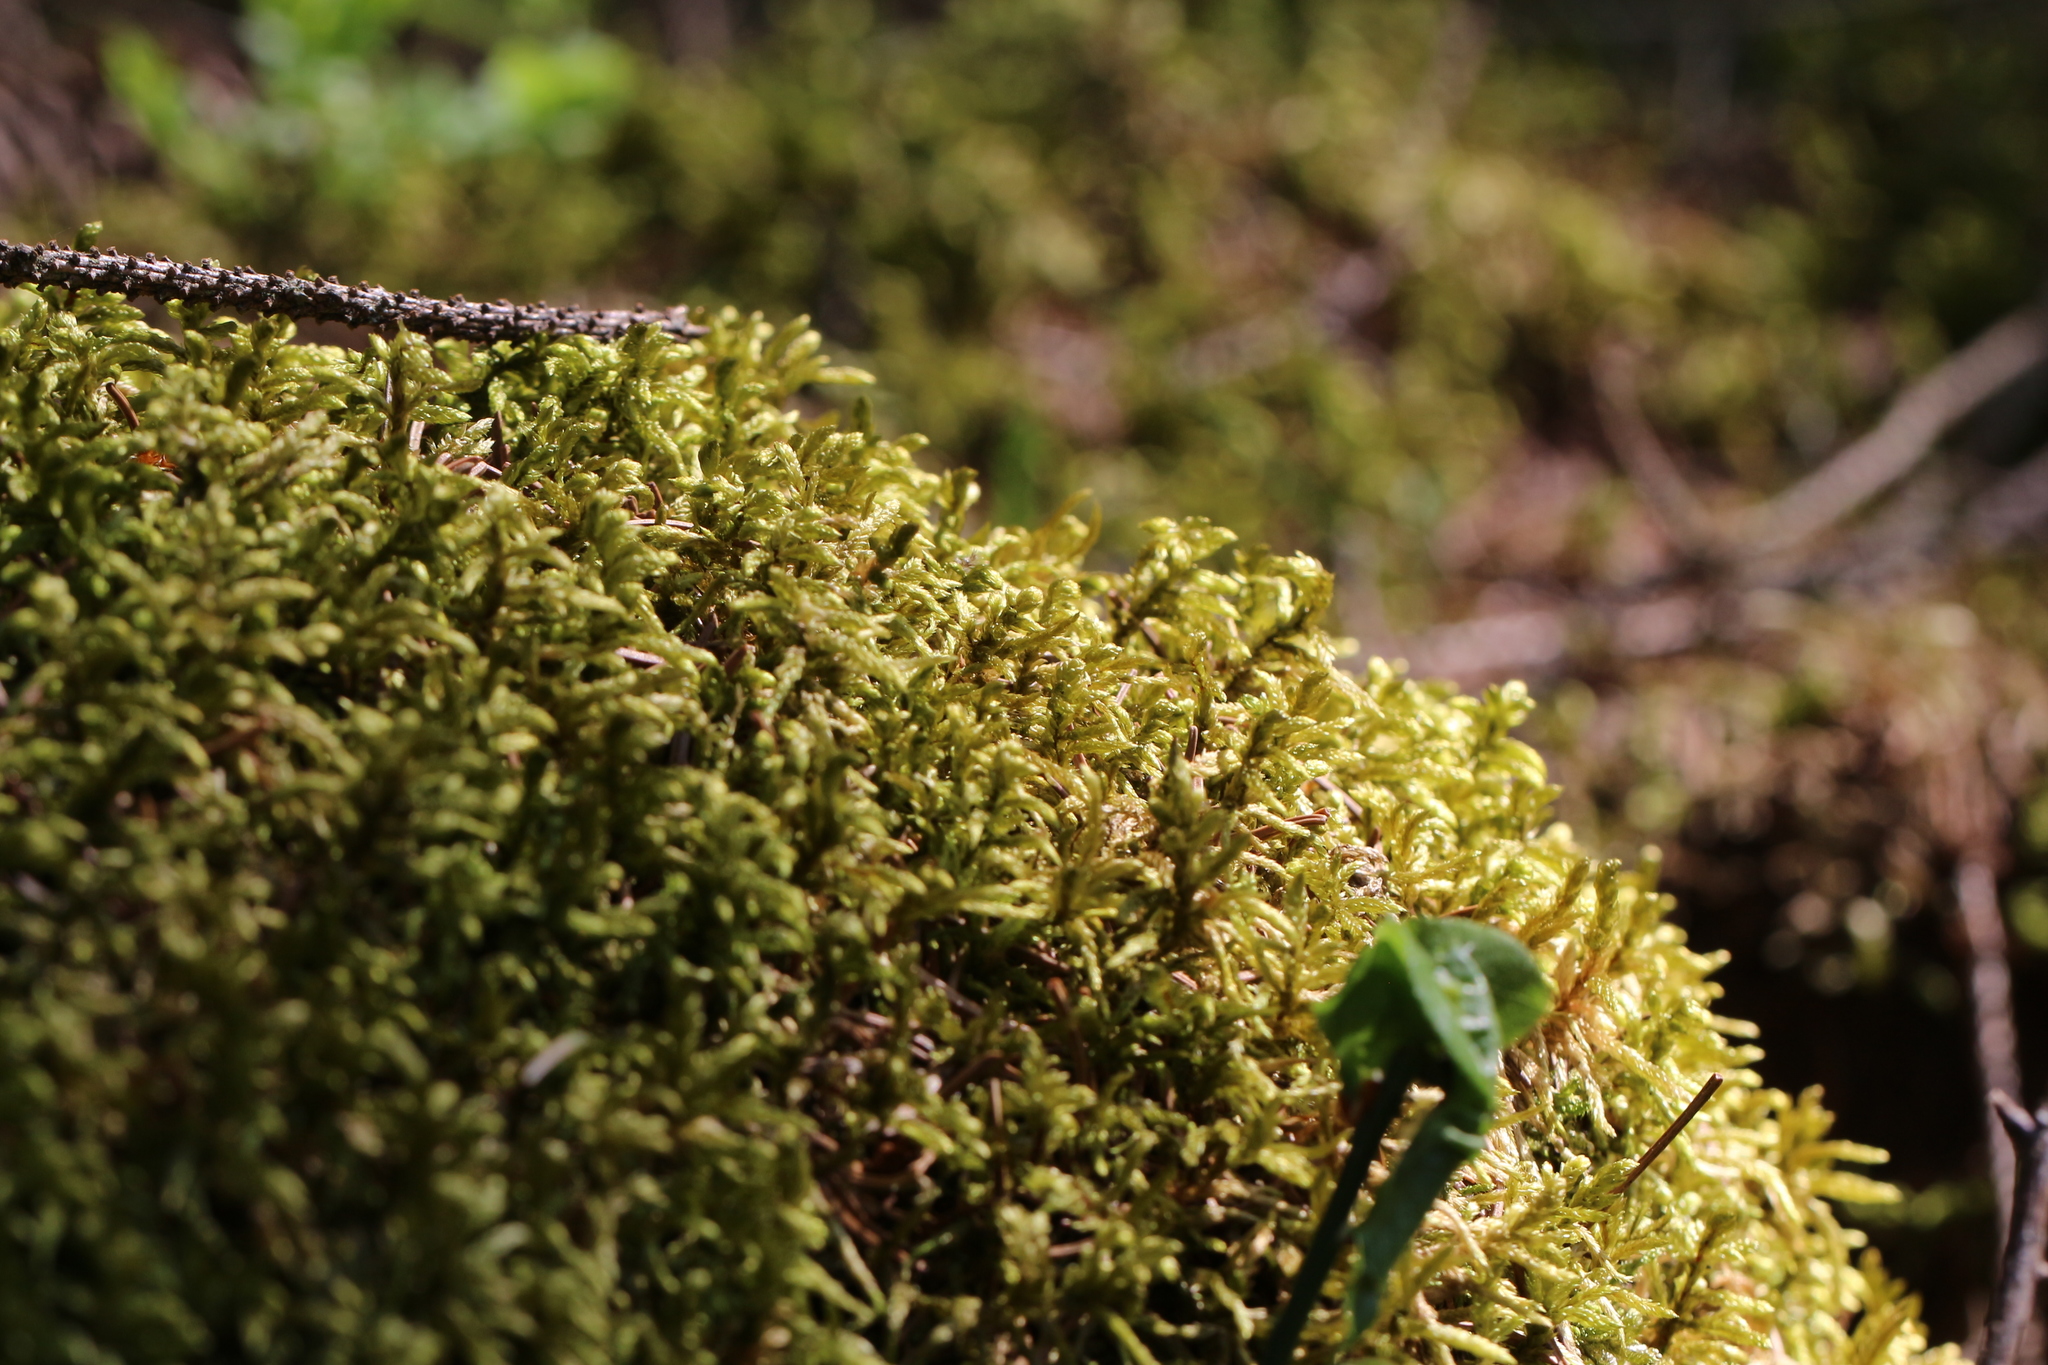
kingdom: Plantae
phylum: Bryophyta
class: Bryopsida
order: Hypnales
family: Hylocomiaceae
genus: Pleurozium
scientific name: Pleurozium schreberi
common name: Red-stemmed feather moss
